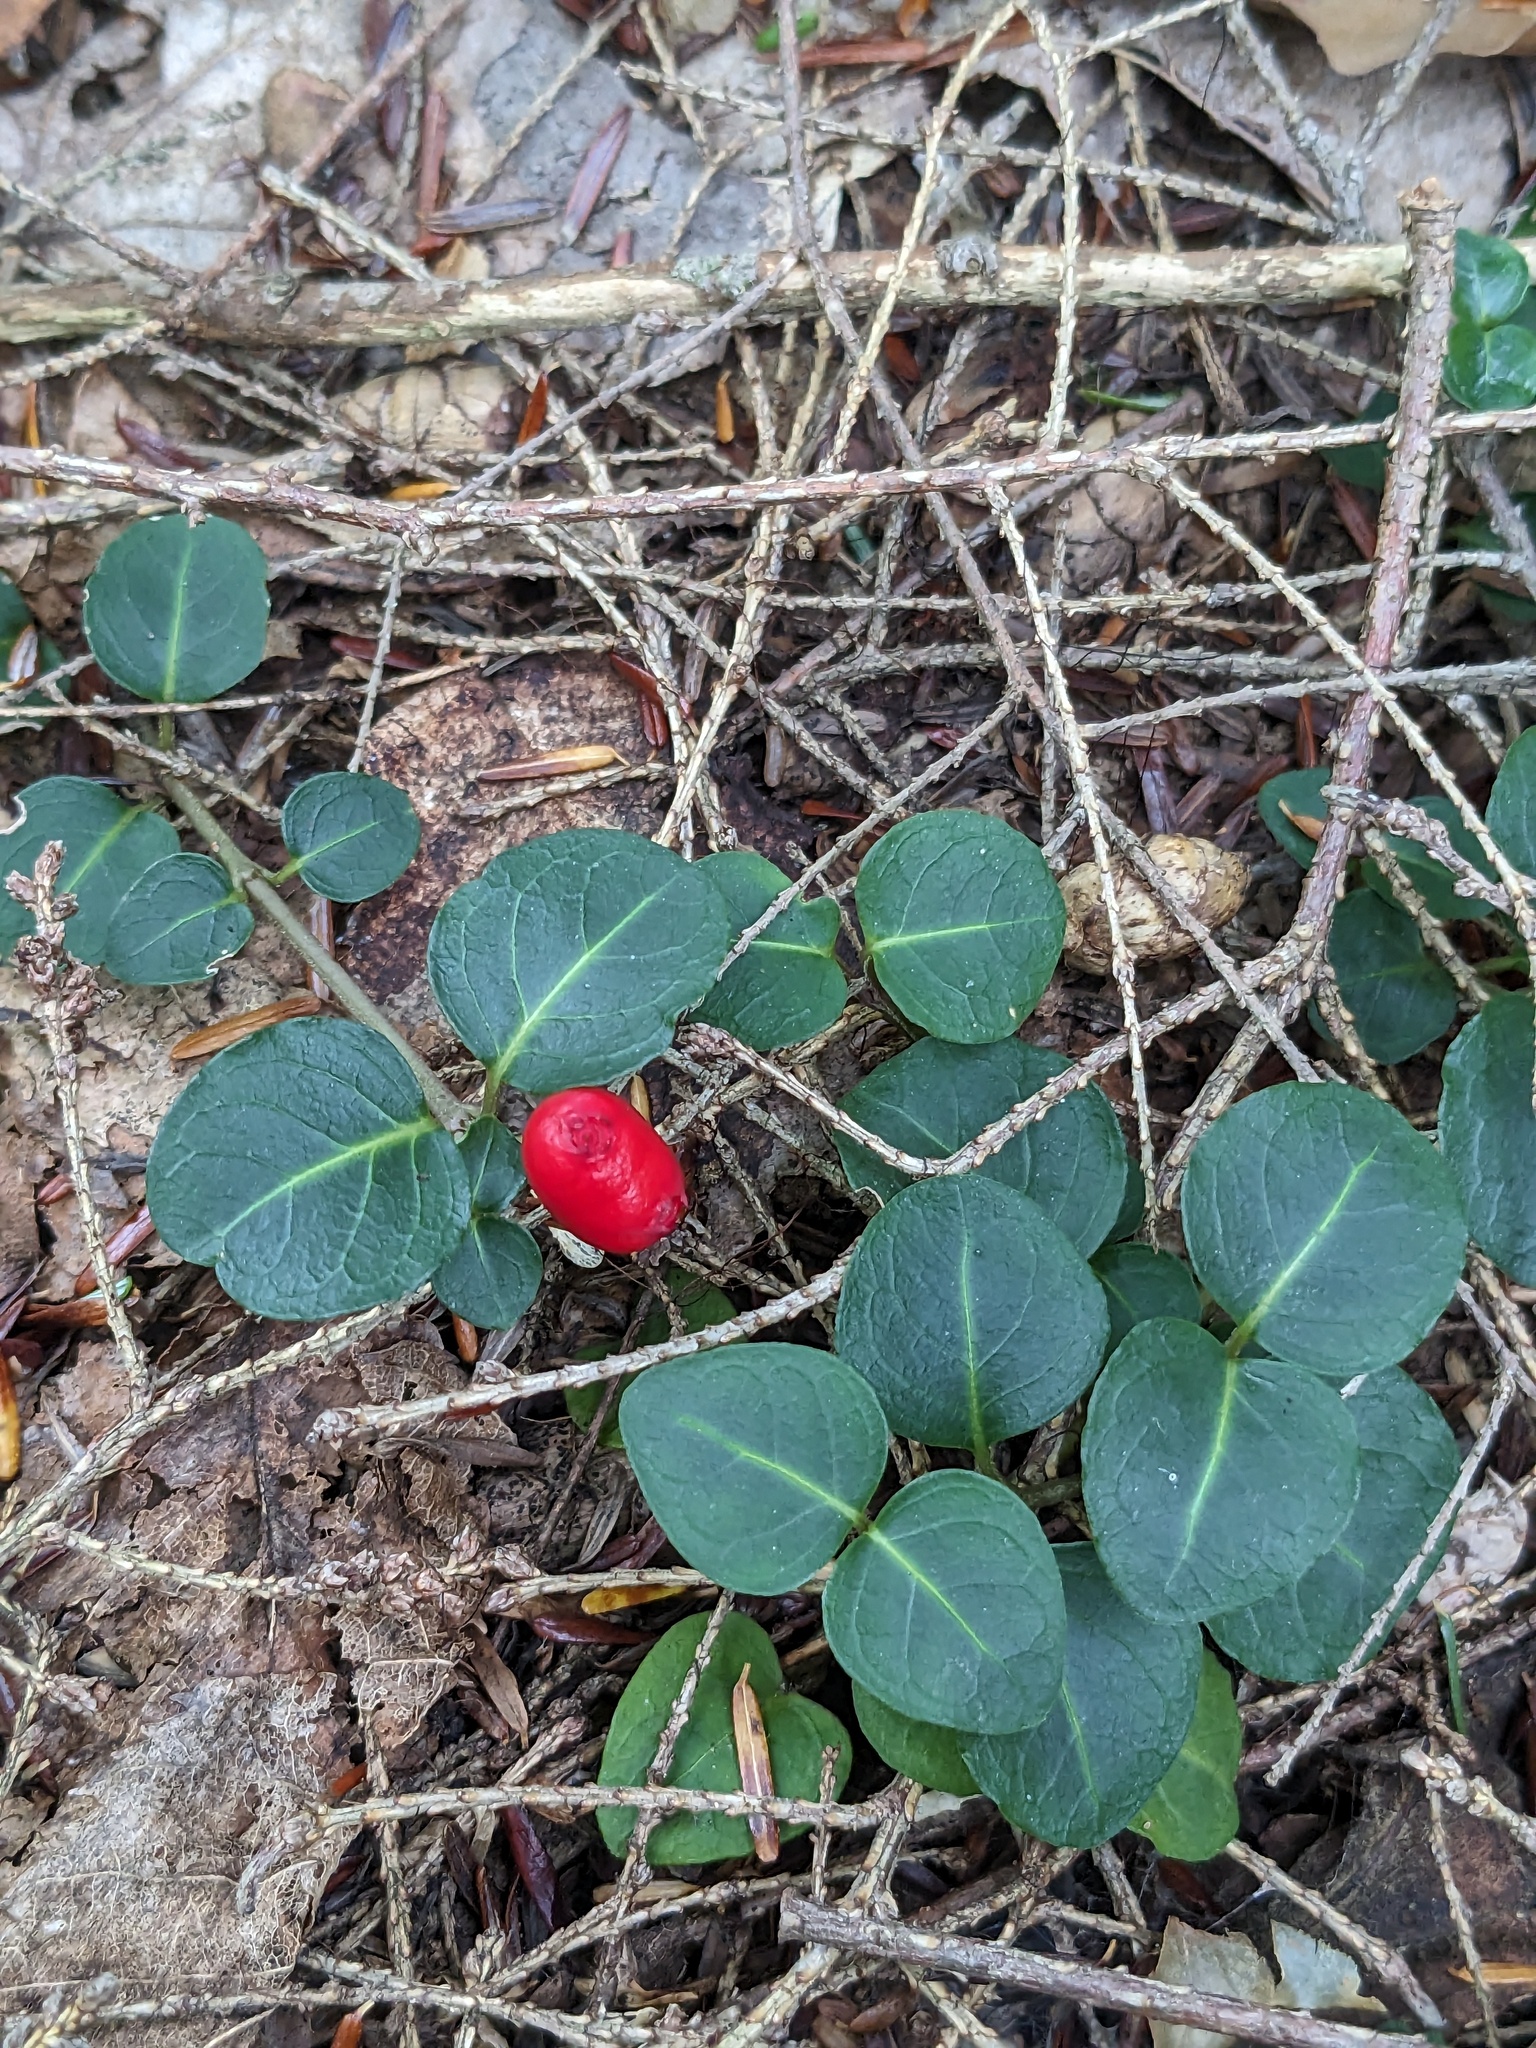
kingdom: Plantae
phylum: Tracheophyta
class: Magnoliopsida
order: Gentianales
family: Rubiaceae
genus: Mitchella
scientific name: Mitchella repens
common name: Partridge-berry
